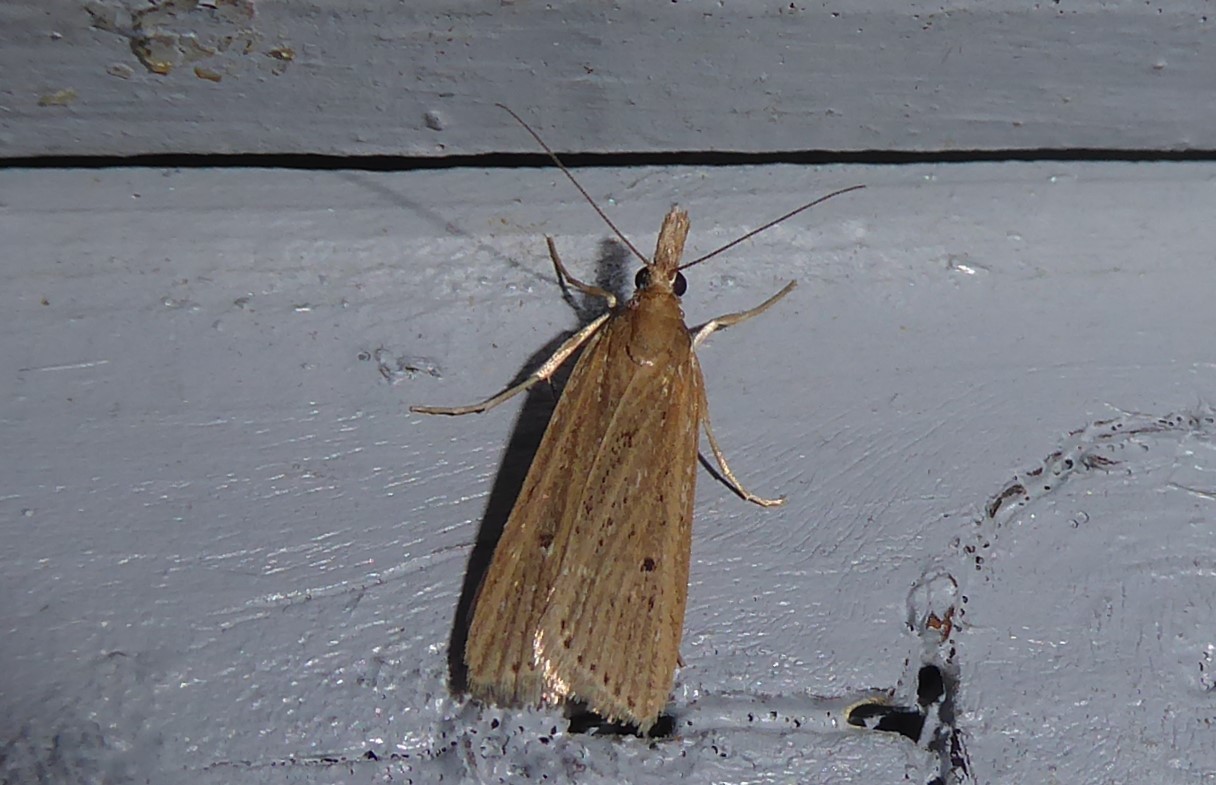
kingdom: Animalia
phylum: Arthropoda
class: Insecta
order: Lepidoptera
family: Crambidae
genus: Eudonia
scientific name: Eudonia sabulosella
